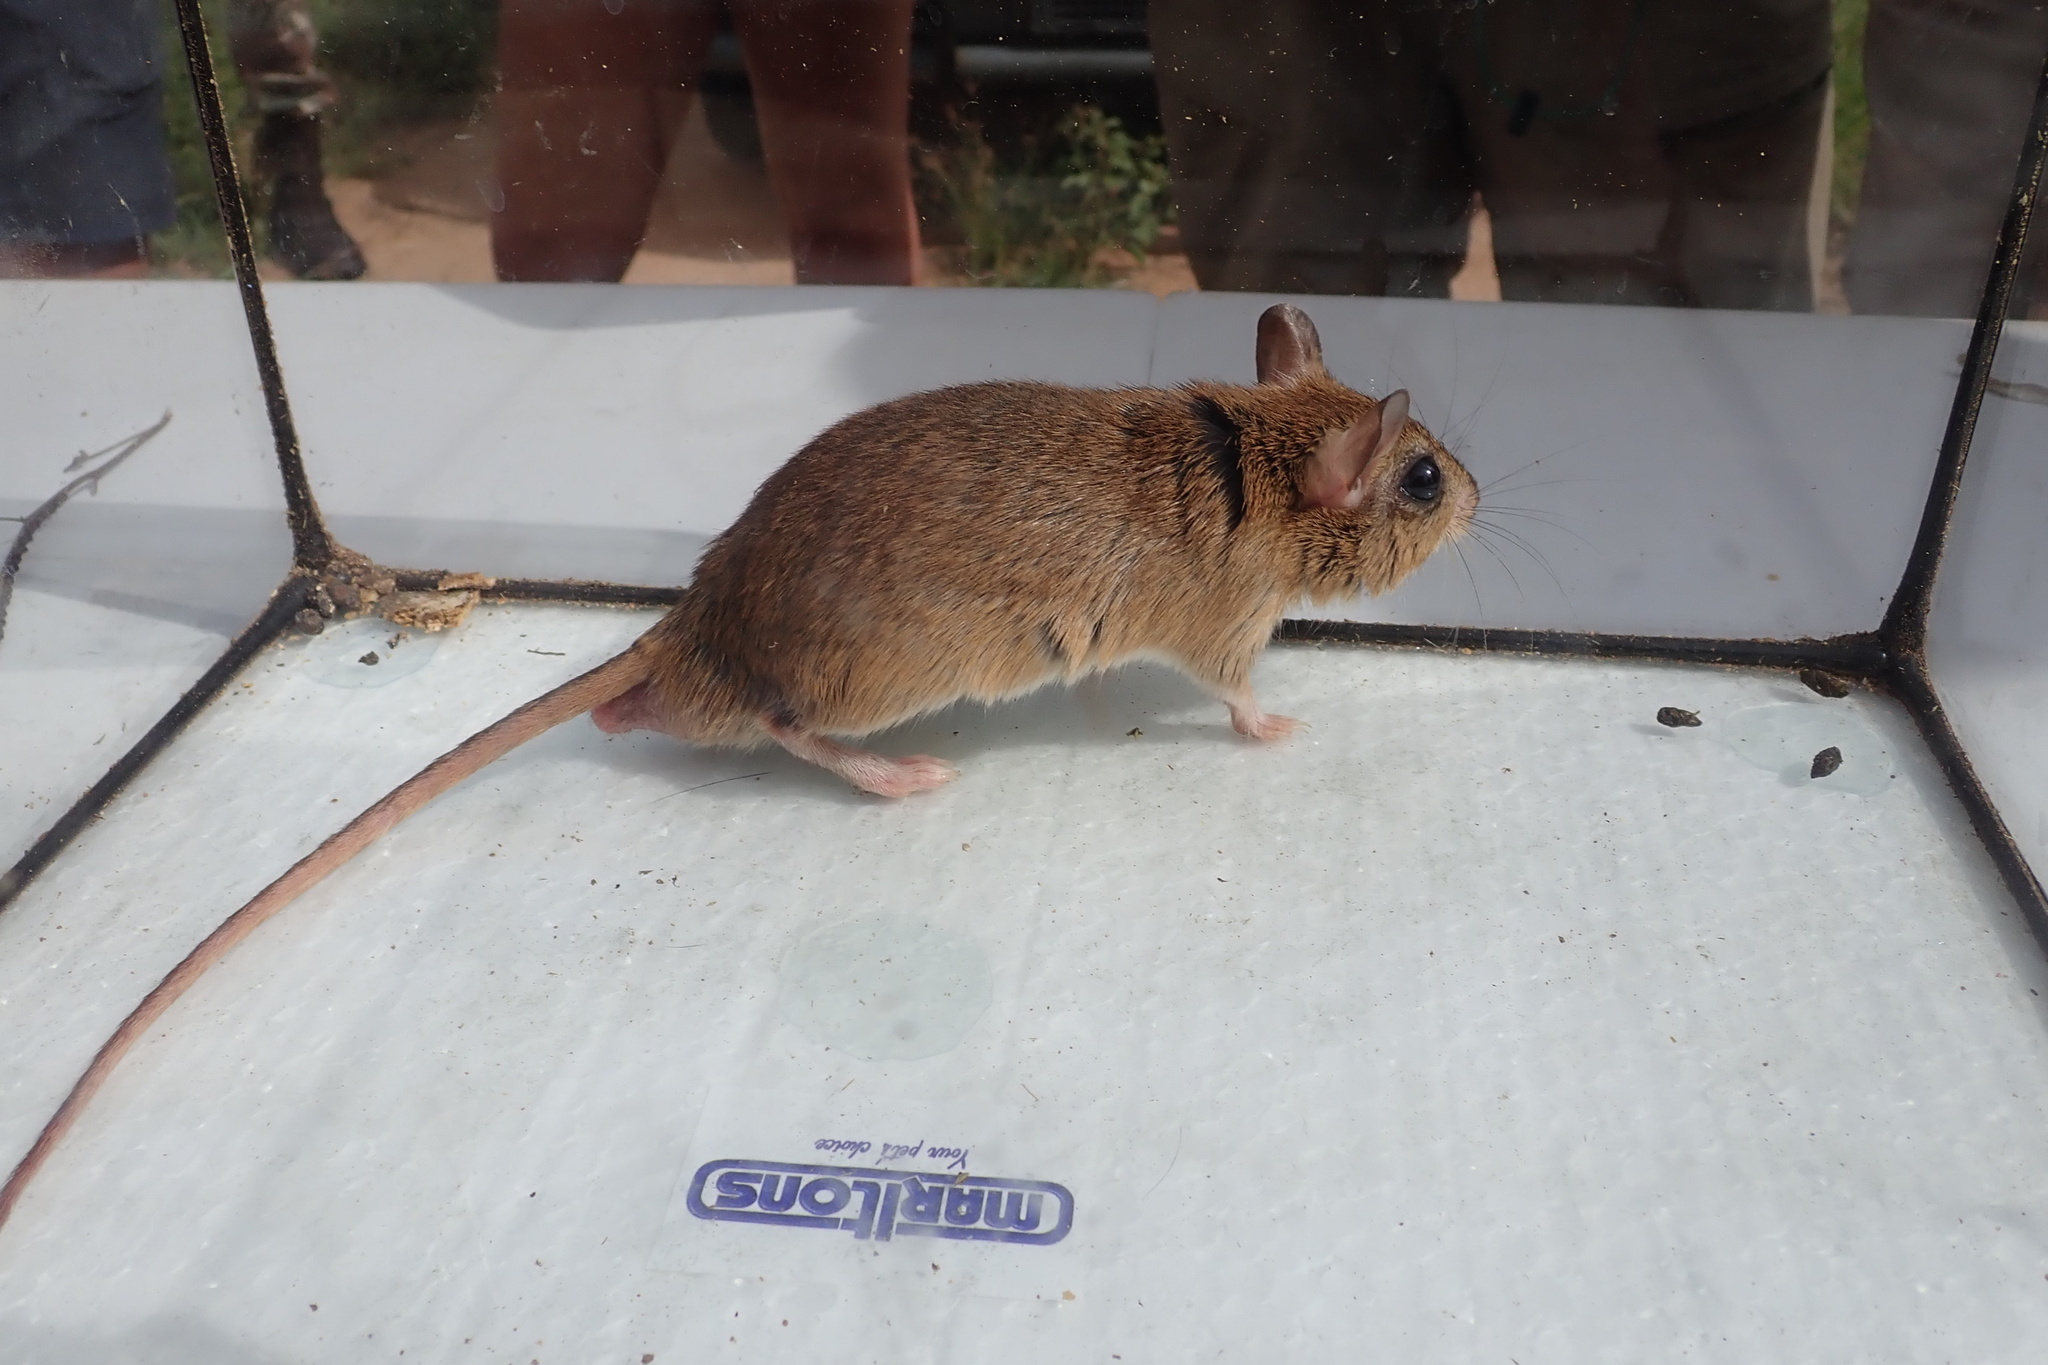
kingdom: Animalia
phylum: Chordata
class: Mammalia
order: Rodentia
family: Muridae
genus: Aethomys
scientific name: Aethomys ineptus
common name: Tete veld aethomys
